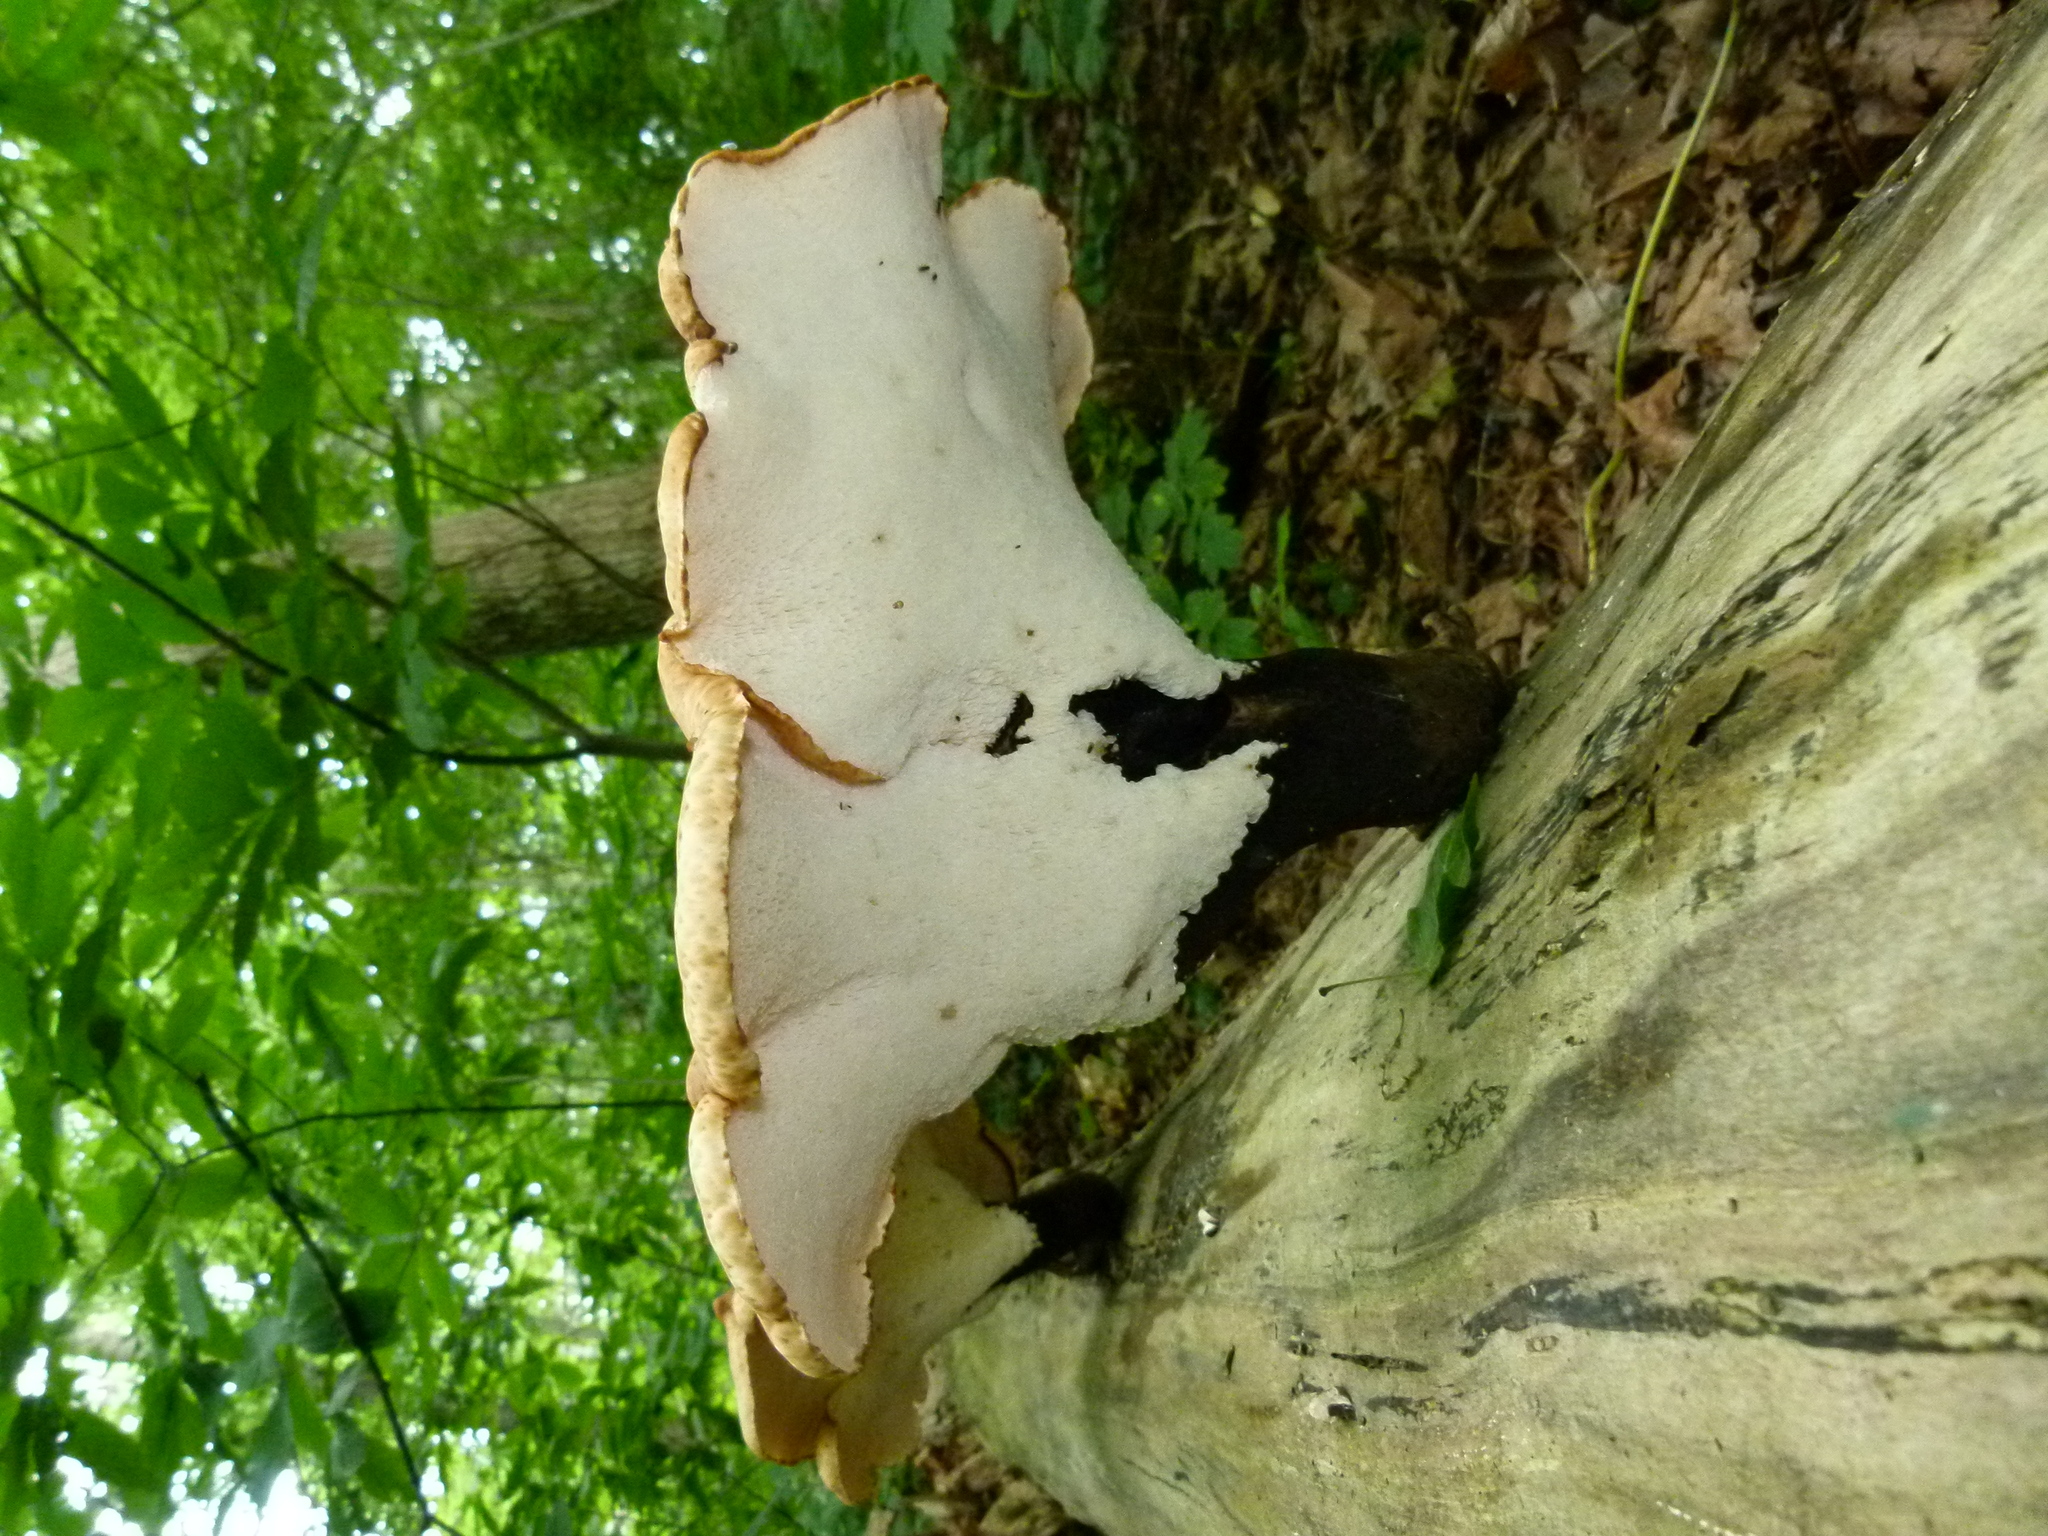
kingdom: Fungi
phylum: Basidiomycota
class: Agaricomycetes
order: Polyporales
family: Polyporaceae
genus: Cerioporus
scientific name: Cerioporus squamosus
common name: Dryad's saddle
